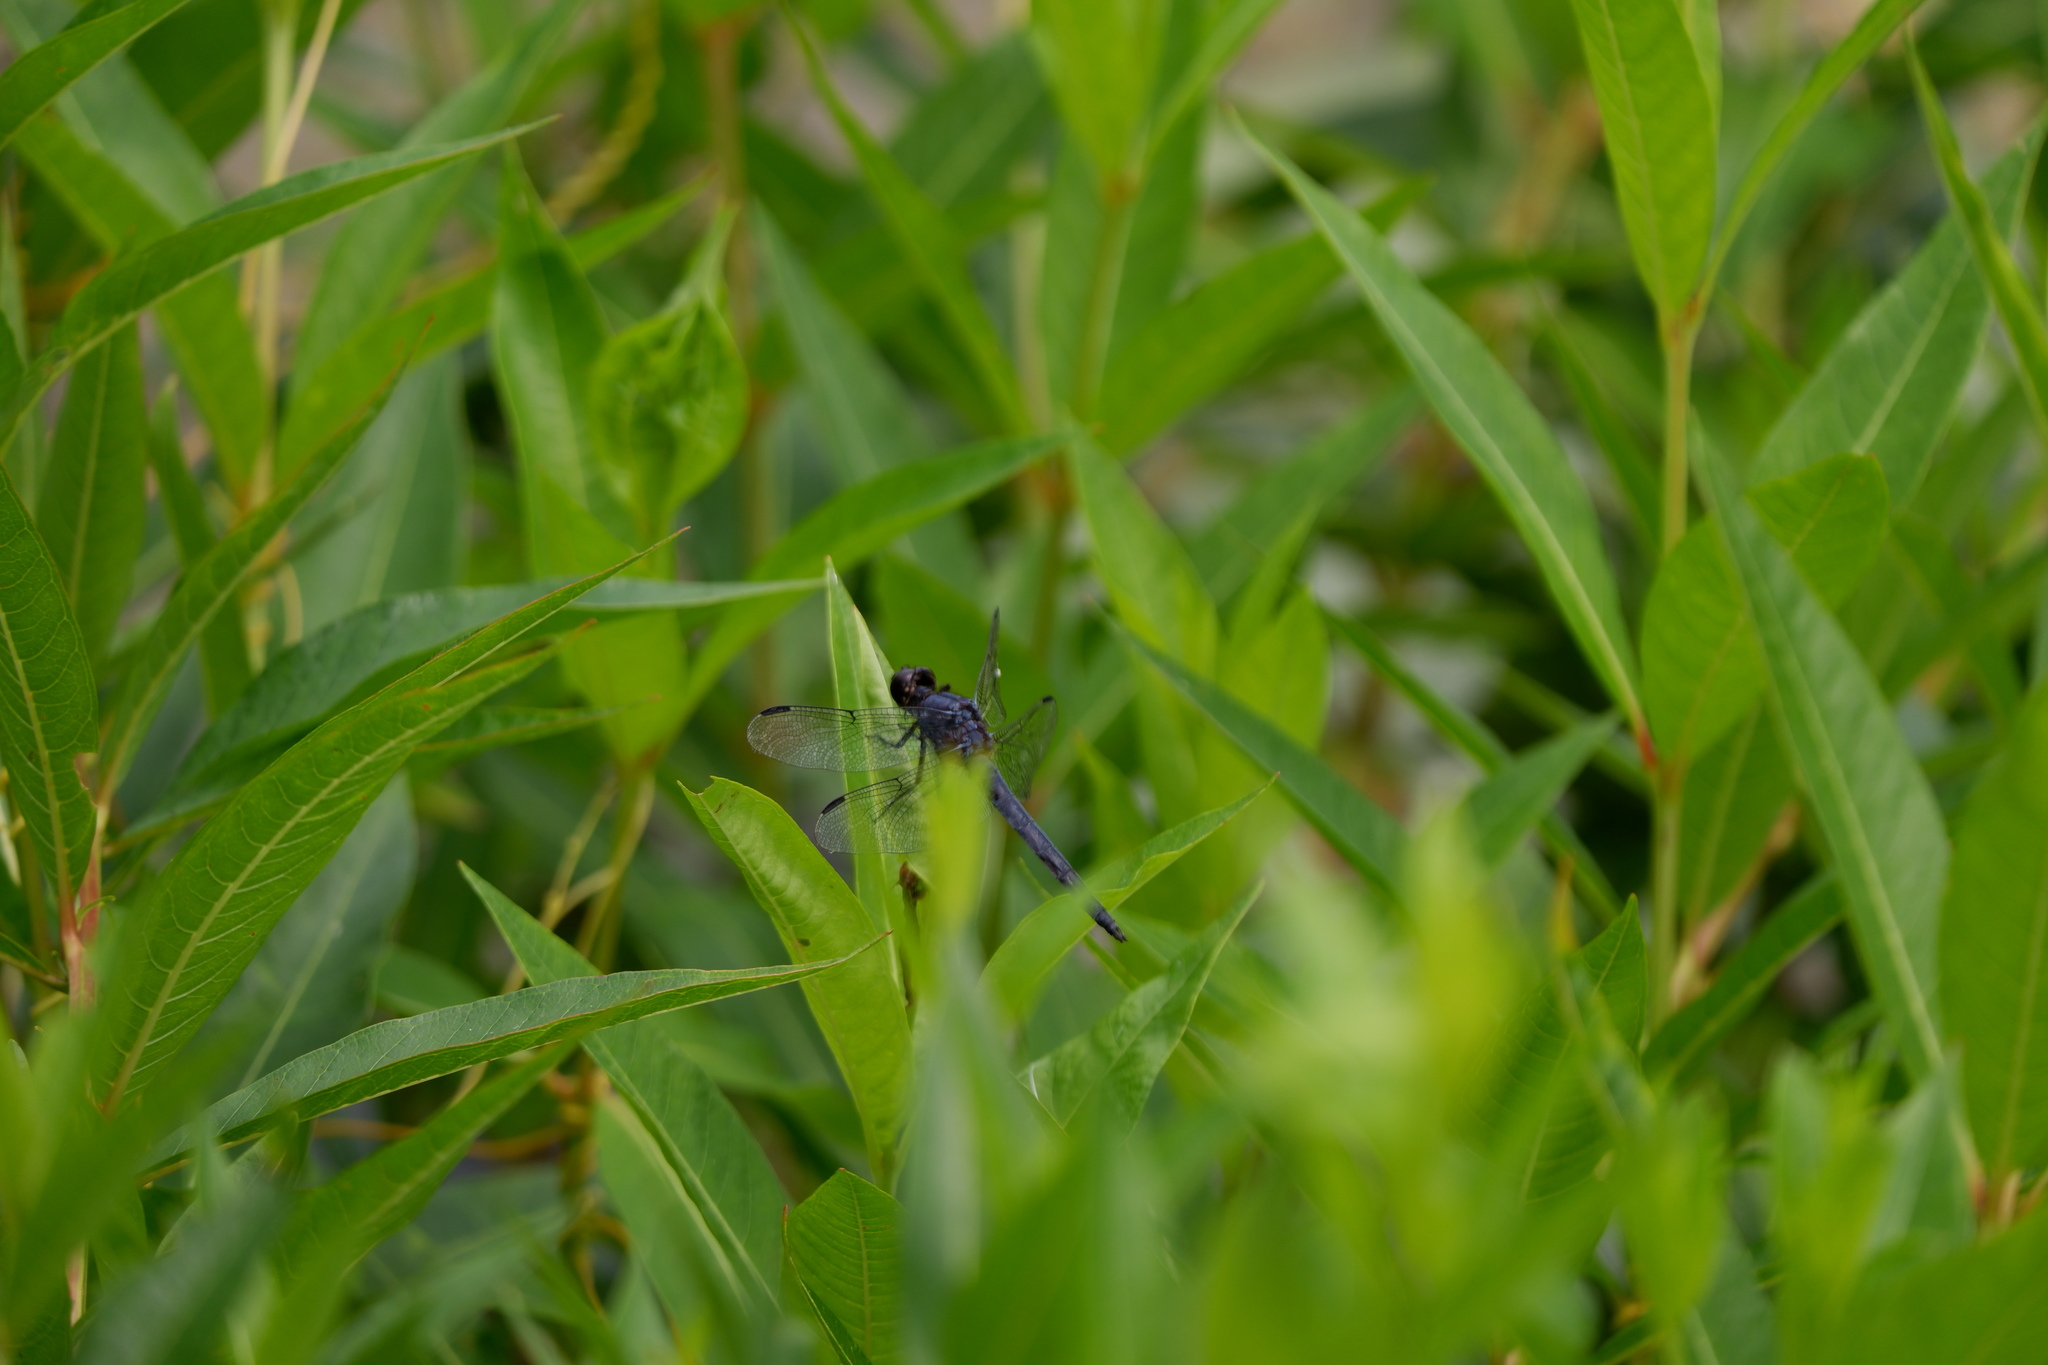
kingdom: Animalia
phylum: Arthropoda
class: Insecta
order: Odonata
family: Libellulidae
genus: Libellula
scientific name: Libellula incesta
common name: Slaty skimmer
